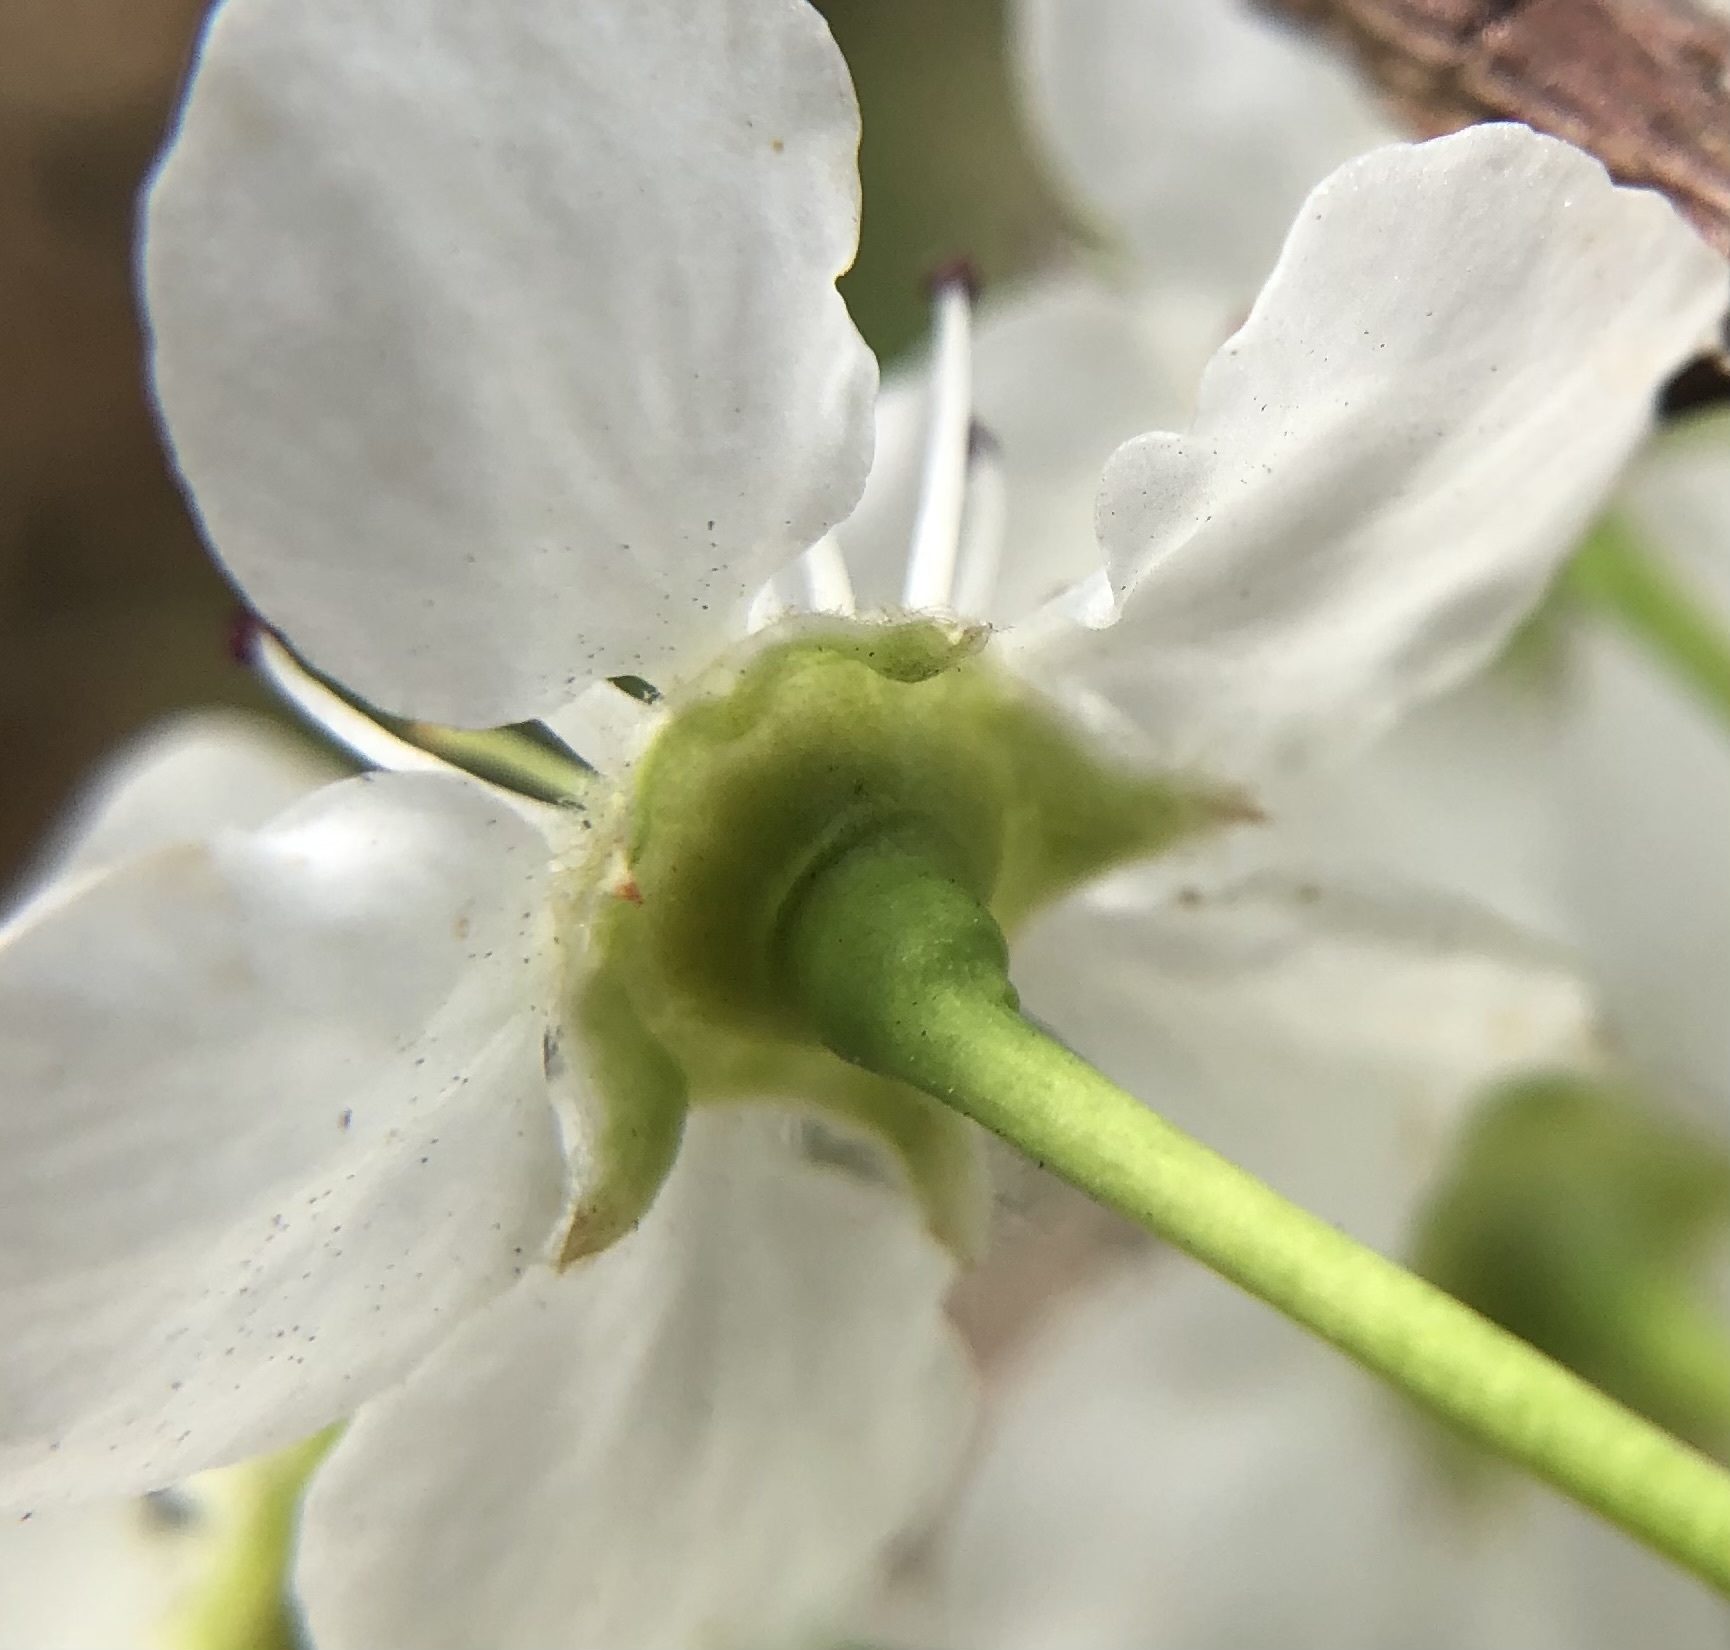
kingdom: Plantae
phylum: Tracheophyta
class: Magnoliopsida
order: Rosales
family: Rosaceae
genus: Pyrus
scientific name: Pyrus calleryana
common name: Callery pear
